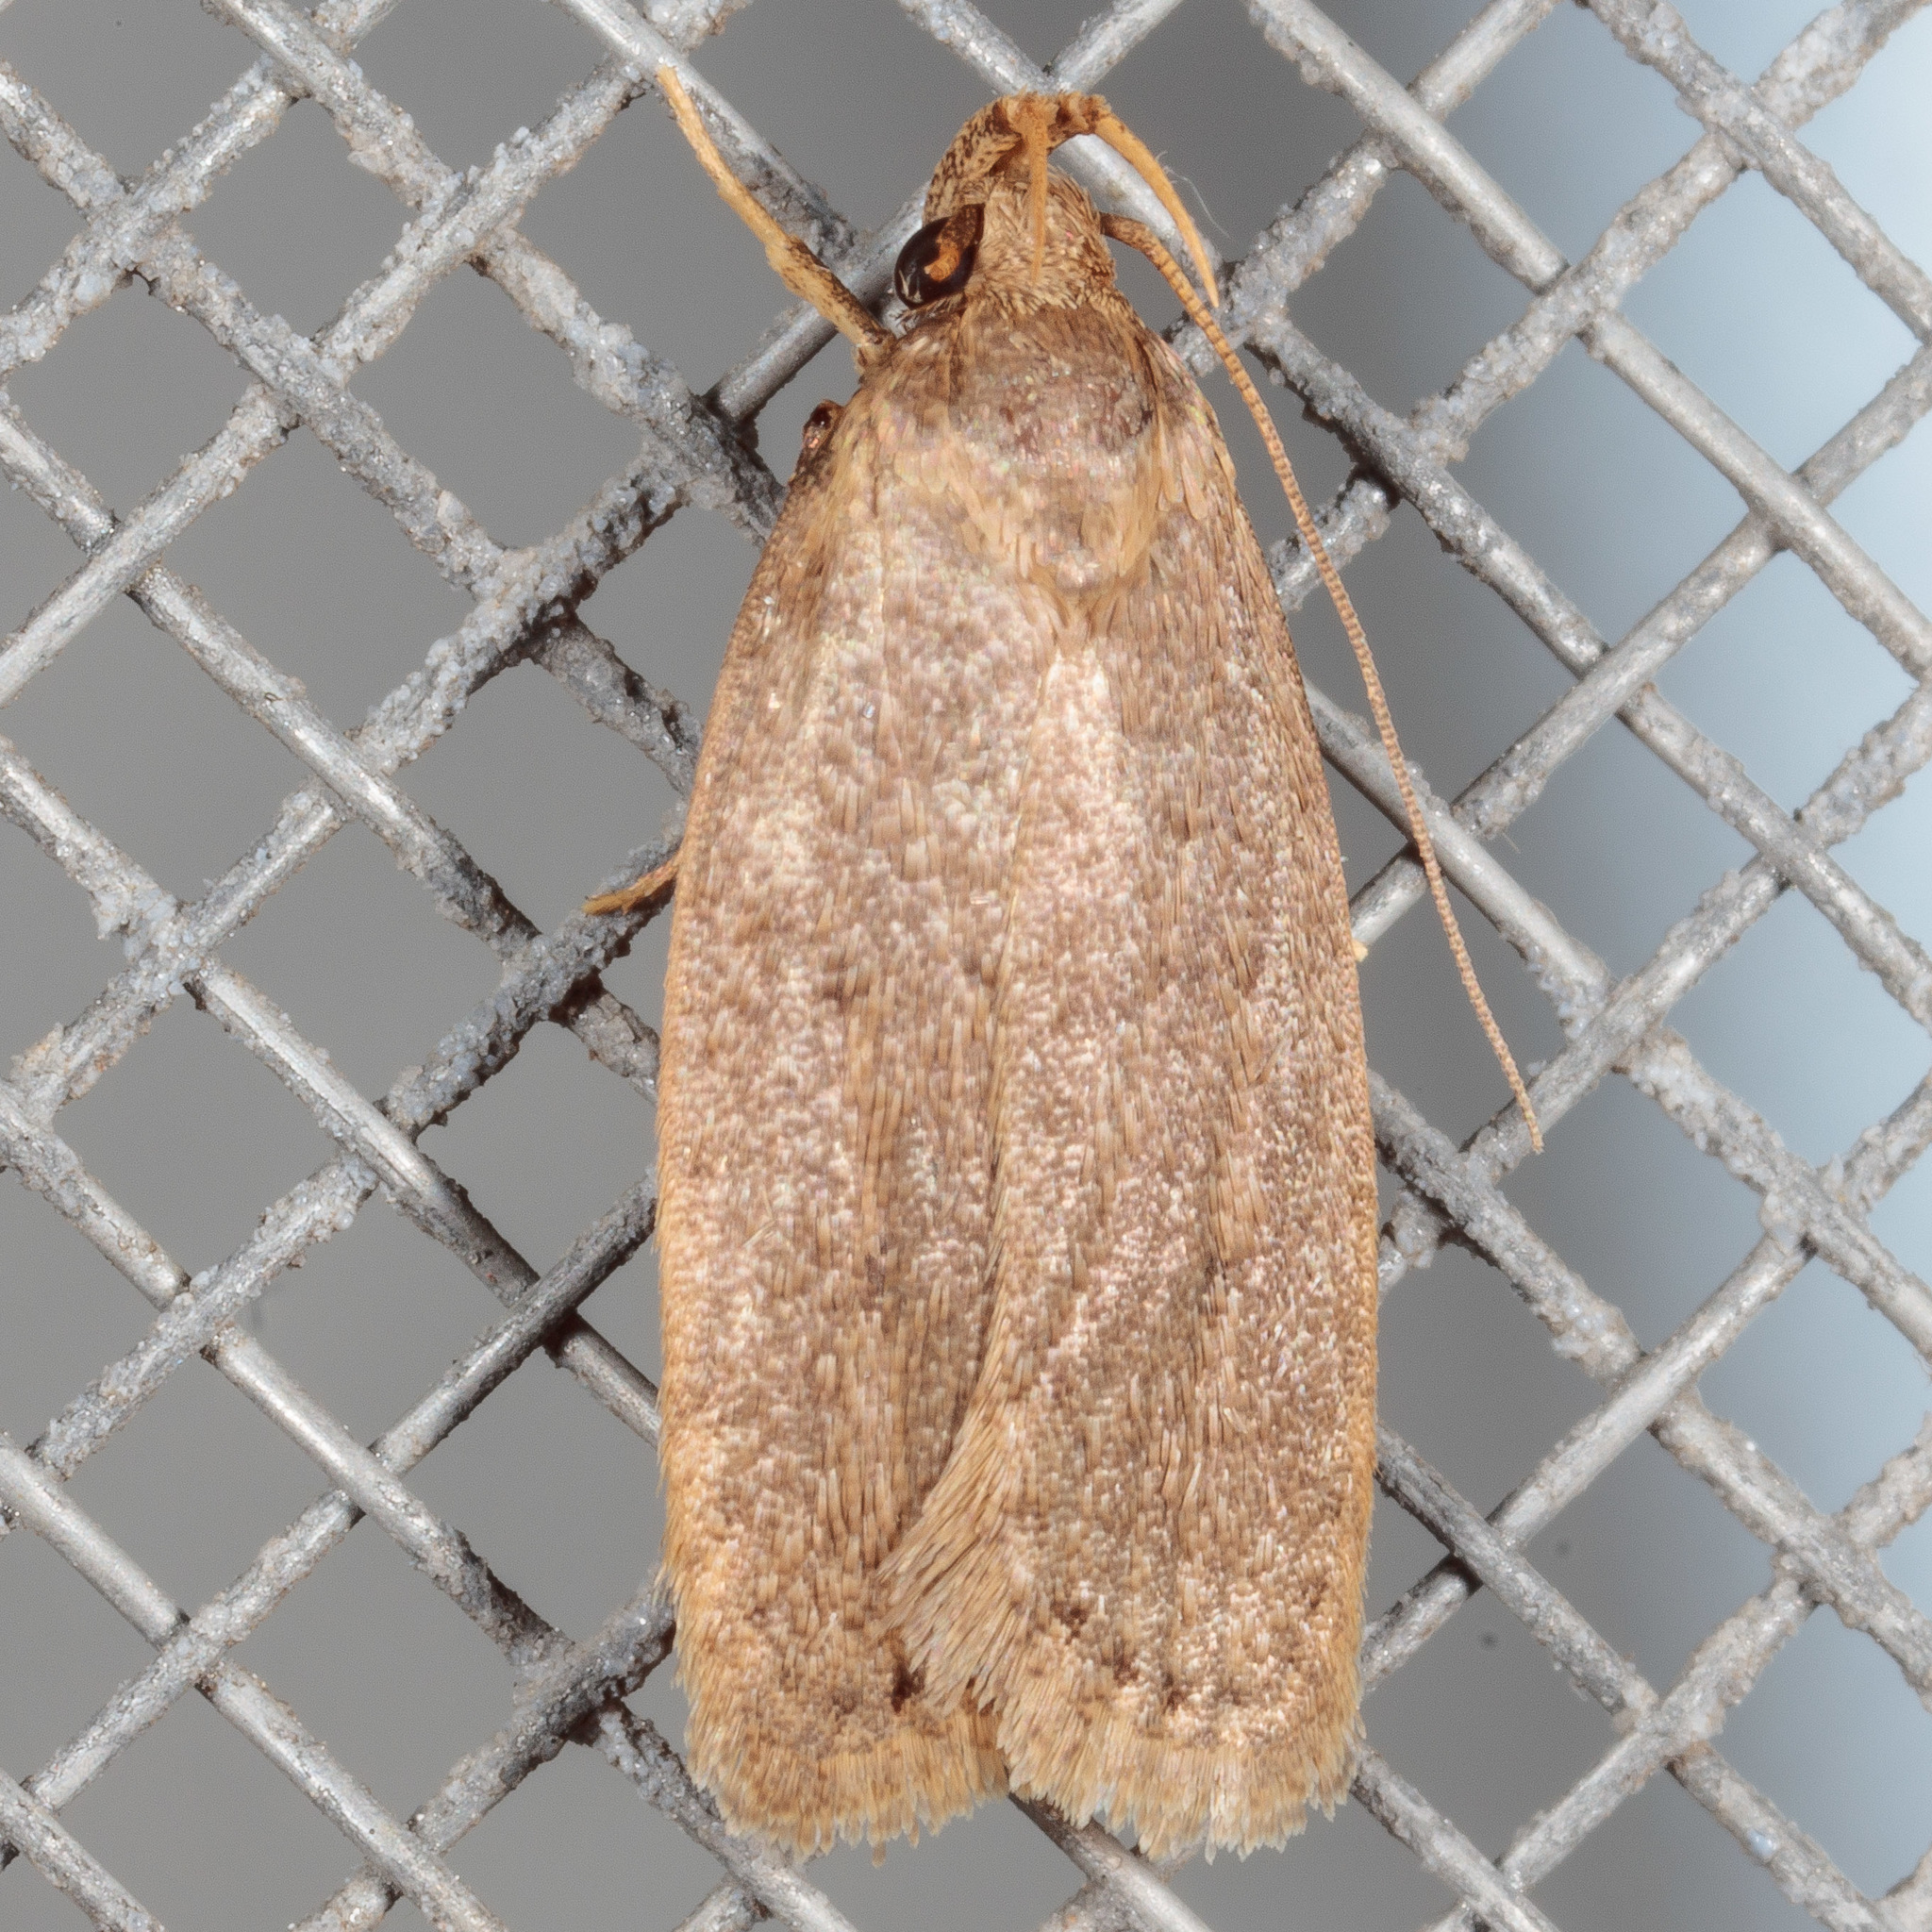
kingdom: Animalia
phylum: Arthropoda
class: Insecta
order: Lepidoptera
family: Autostichidae
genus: Autosticha
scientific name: Autosticha kyotensis
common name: Kyoto moth
